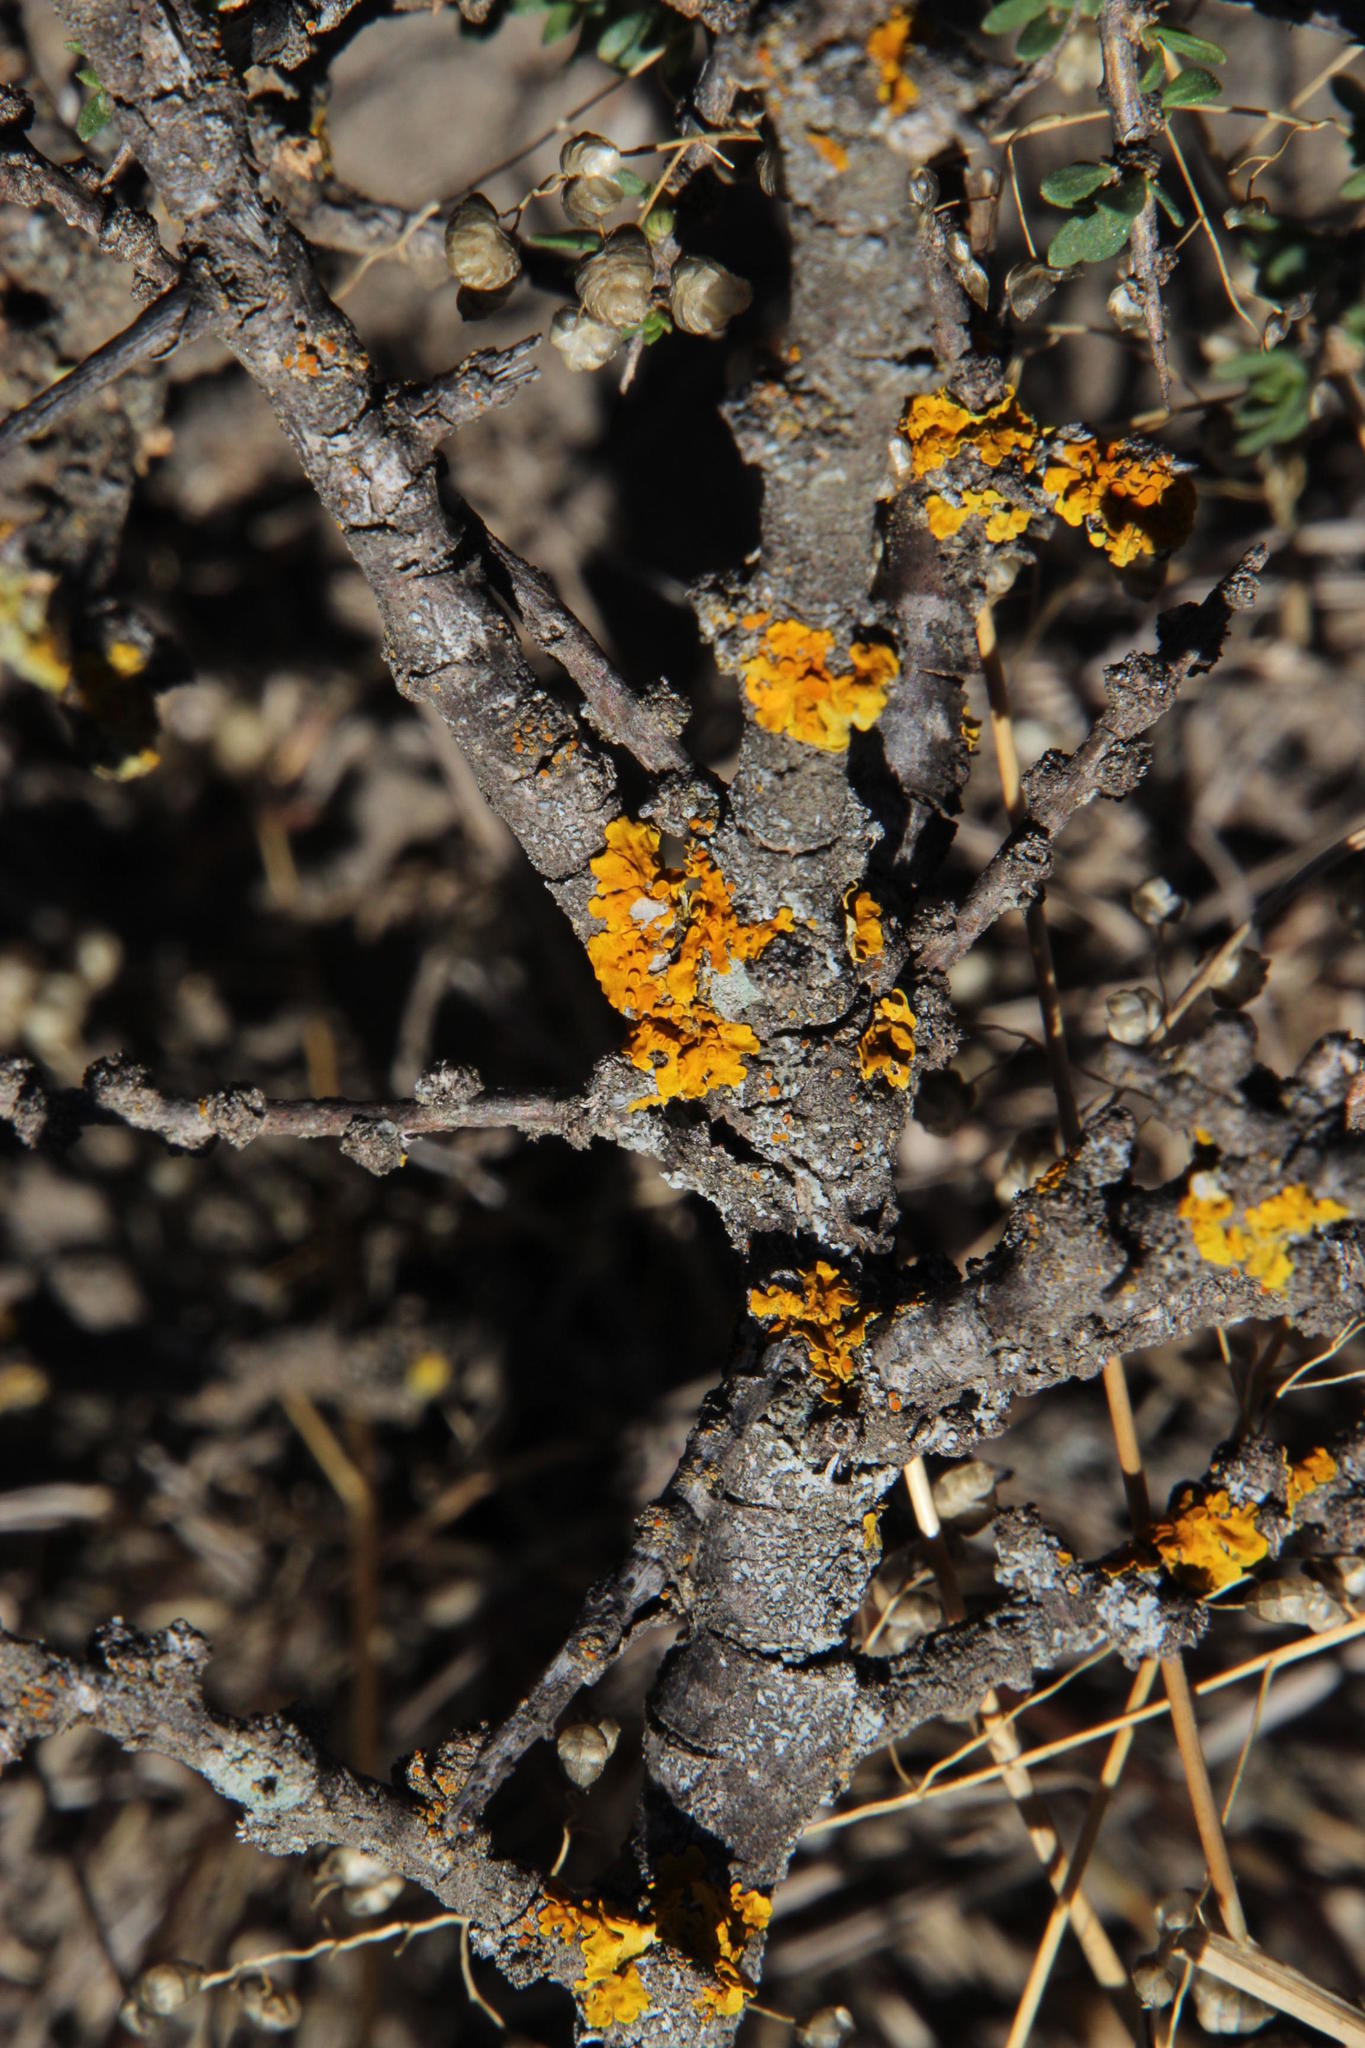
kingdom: Fungi
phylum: Ascomycota
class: Lecanoromycetes
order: Teloschistales
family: Teloschistaceae
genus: Xanthoria
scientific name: Xanthoria parietina
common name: Common orange lichen
